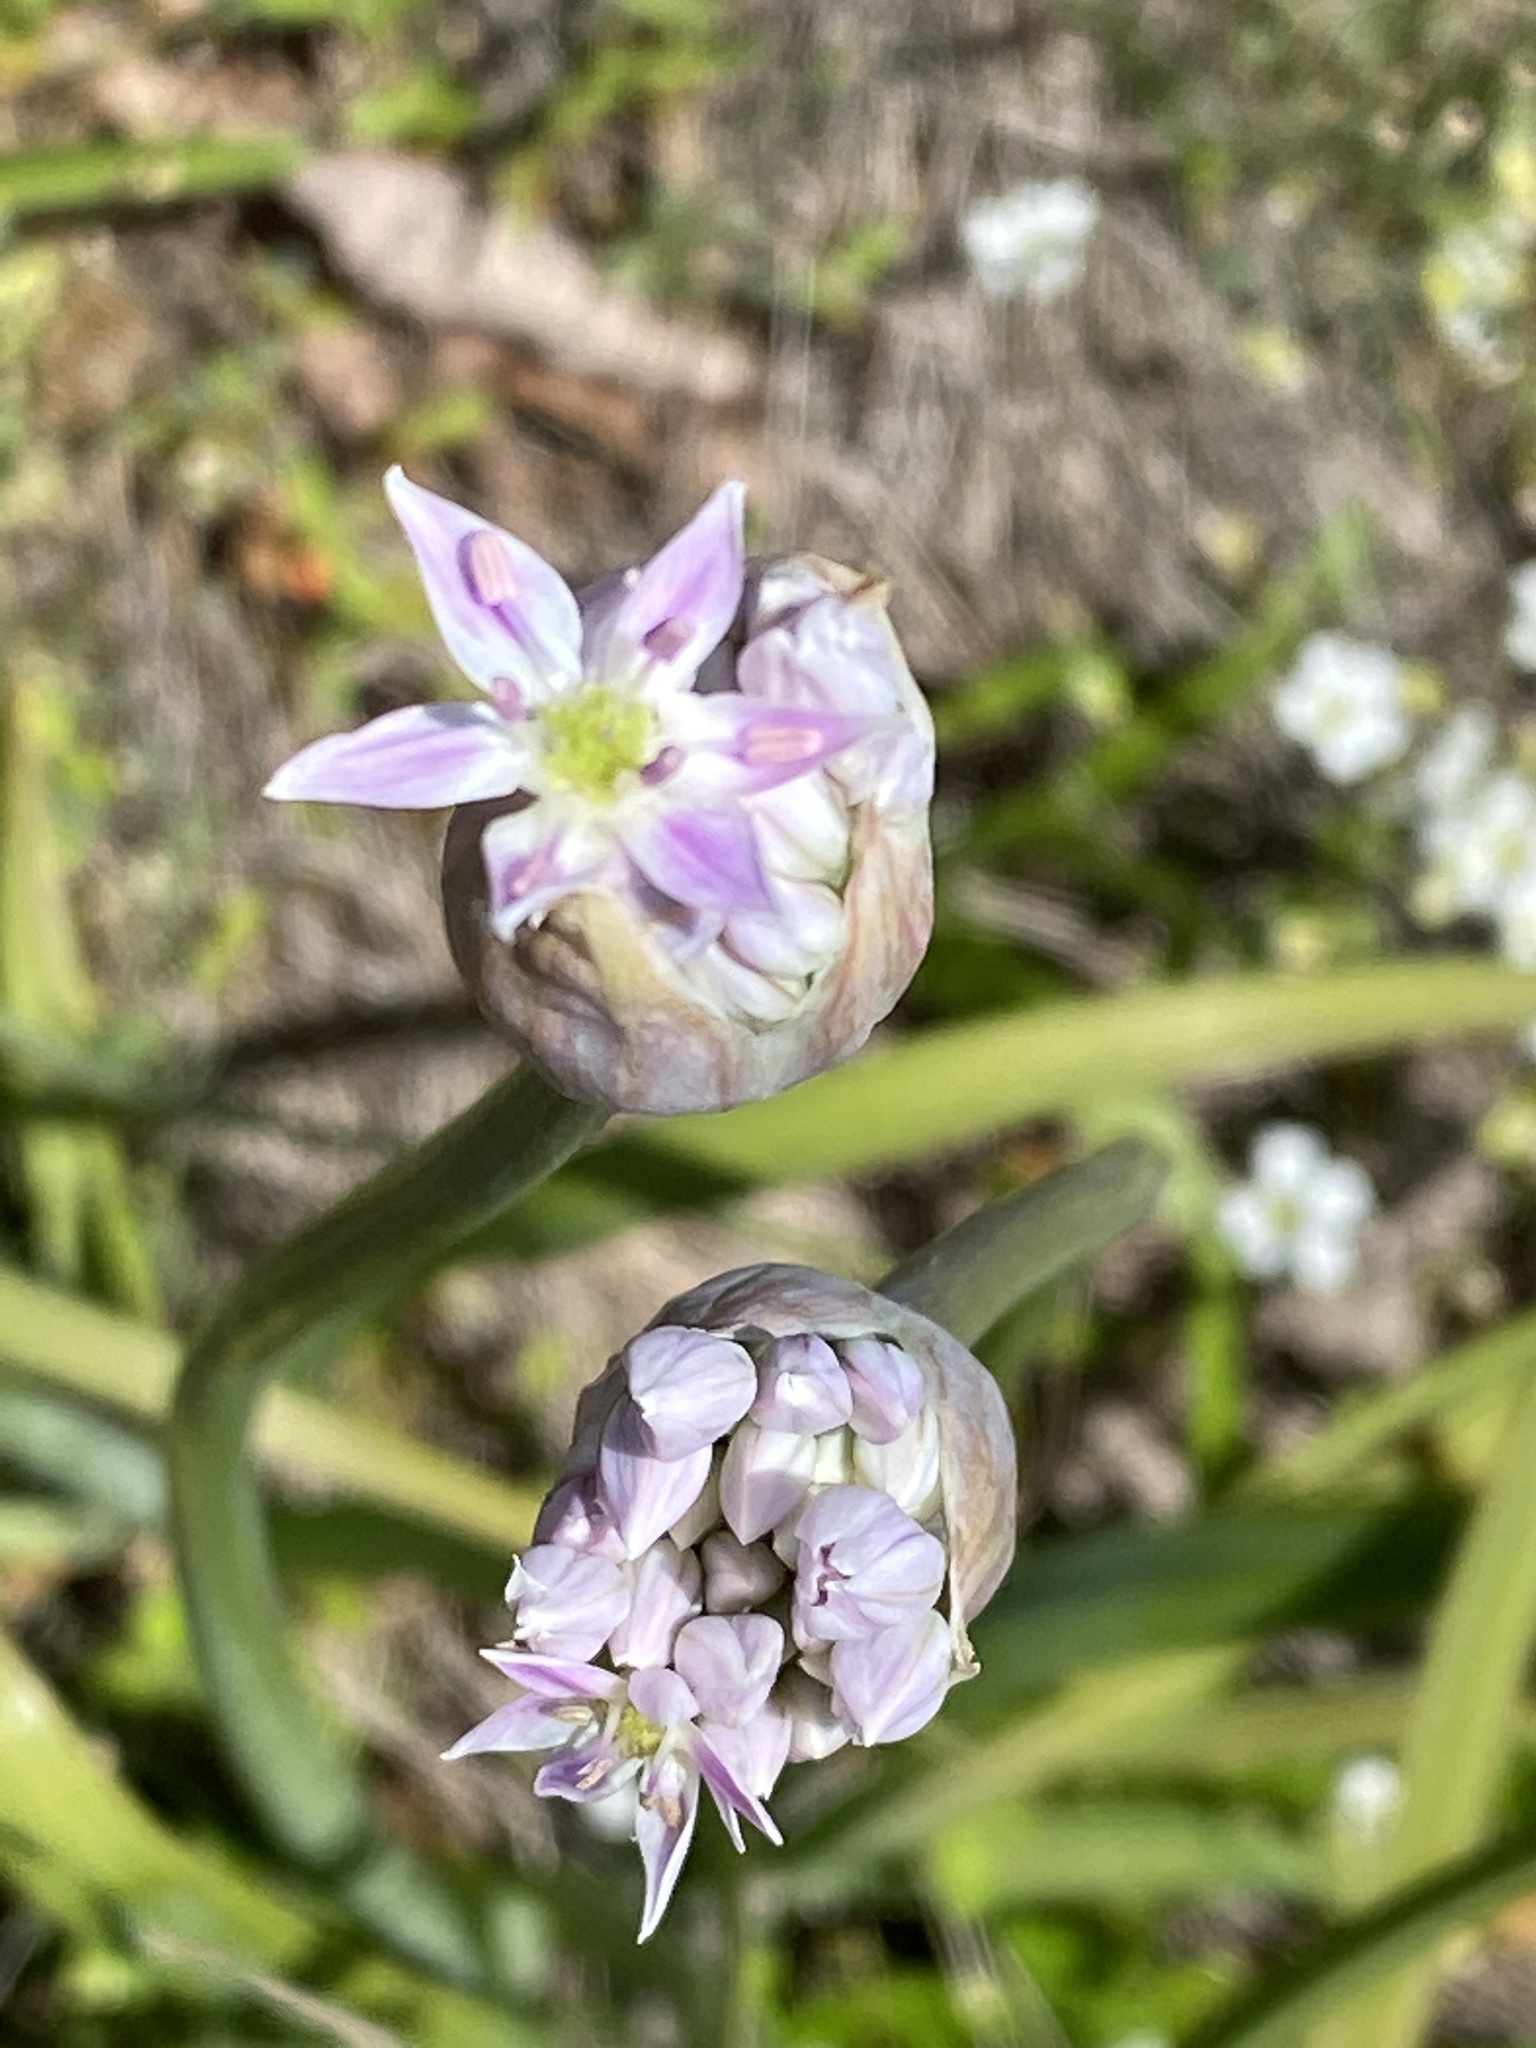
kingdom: Plantae
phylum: Tracheophyta
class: Liliopsida
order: Asparagales
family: Amaryllidaceae
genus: Allium
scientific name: Allium keeverae
